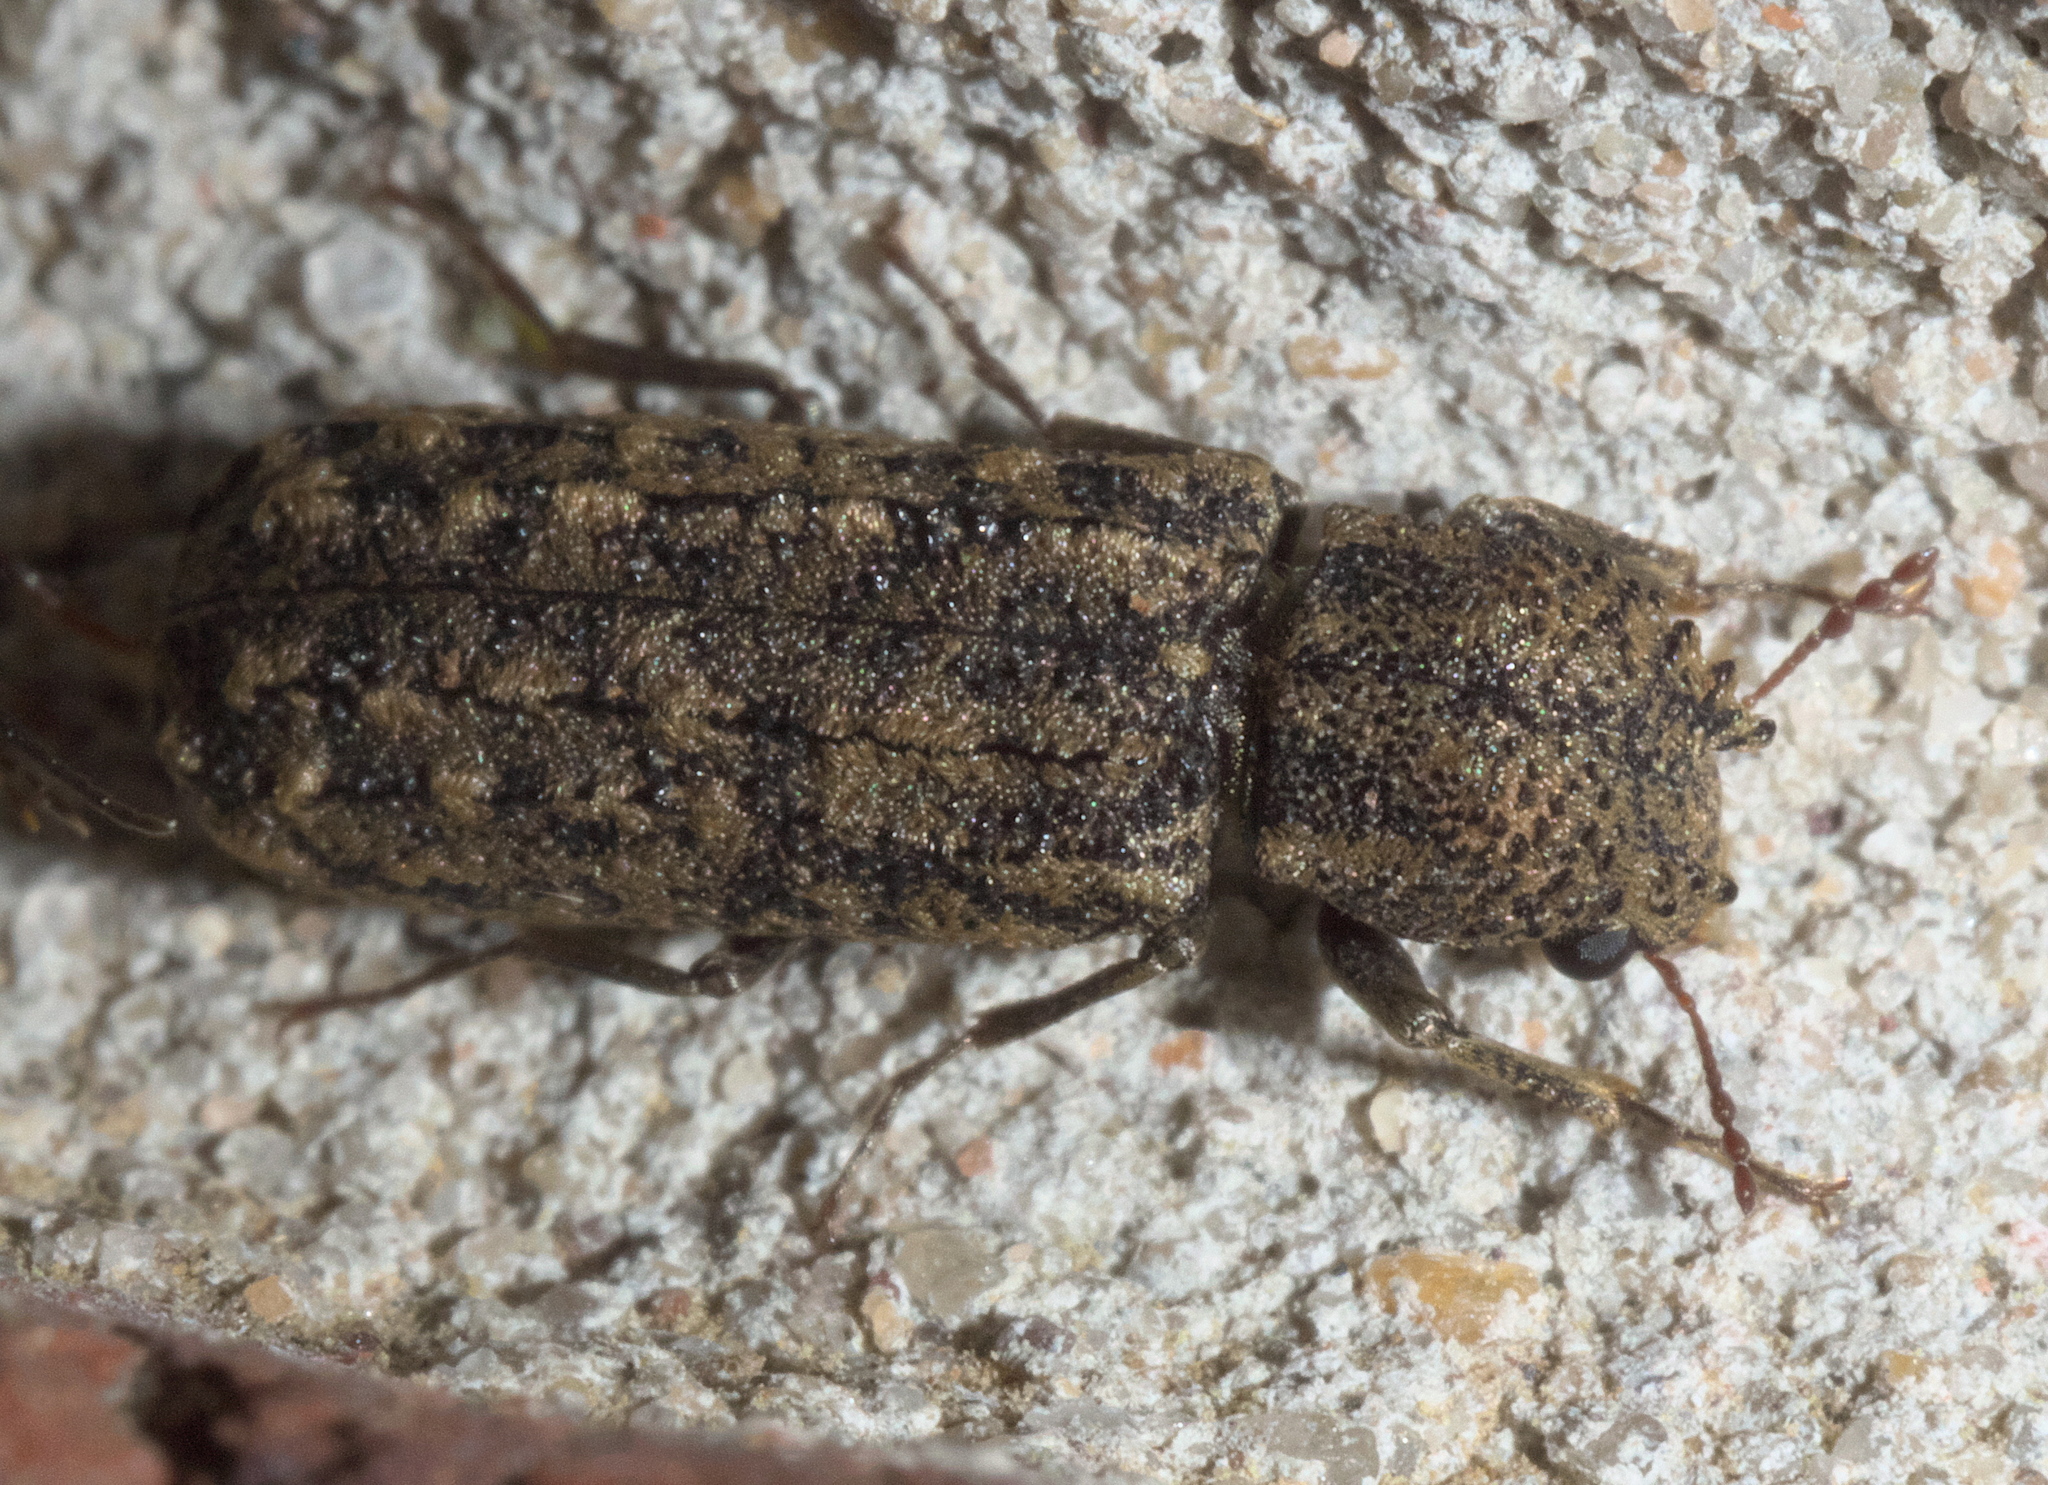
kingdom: Animalia
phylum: Arthropoda
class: Insecta
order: Coleoptera
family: Bostrichidae
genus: Lichenophanes
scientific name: Lichenophanes bicornis
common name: Two-horned powder-post beetle
